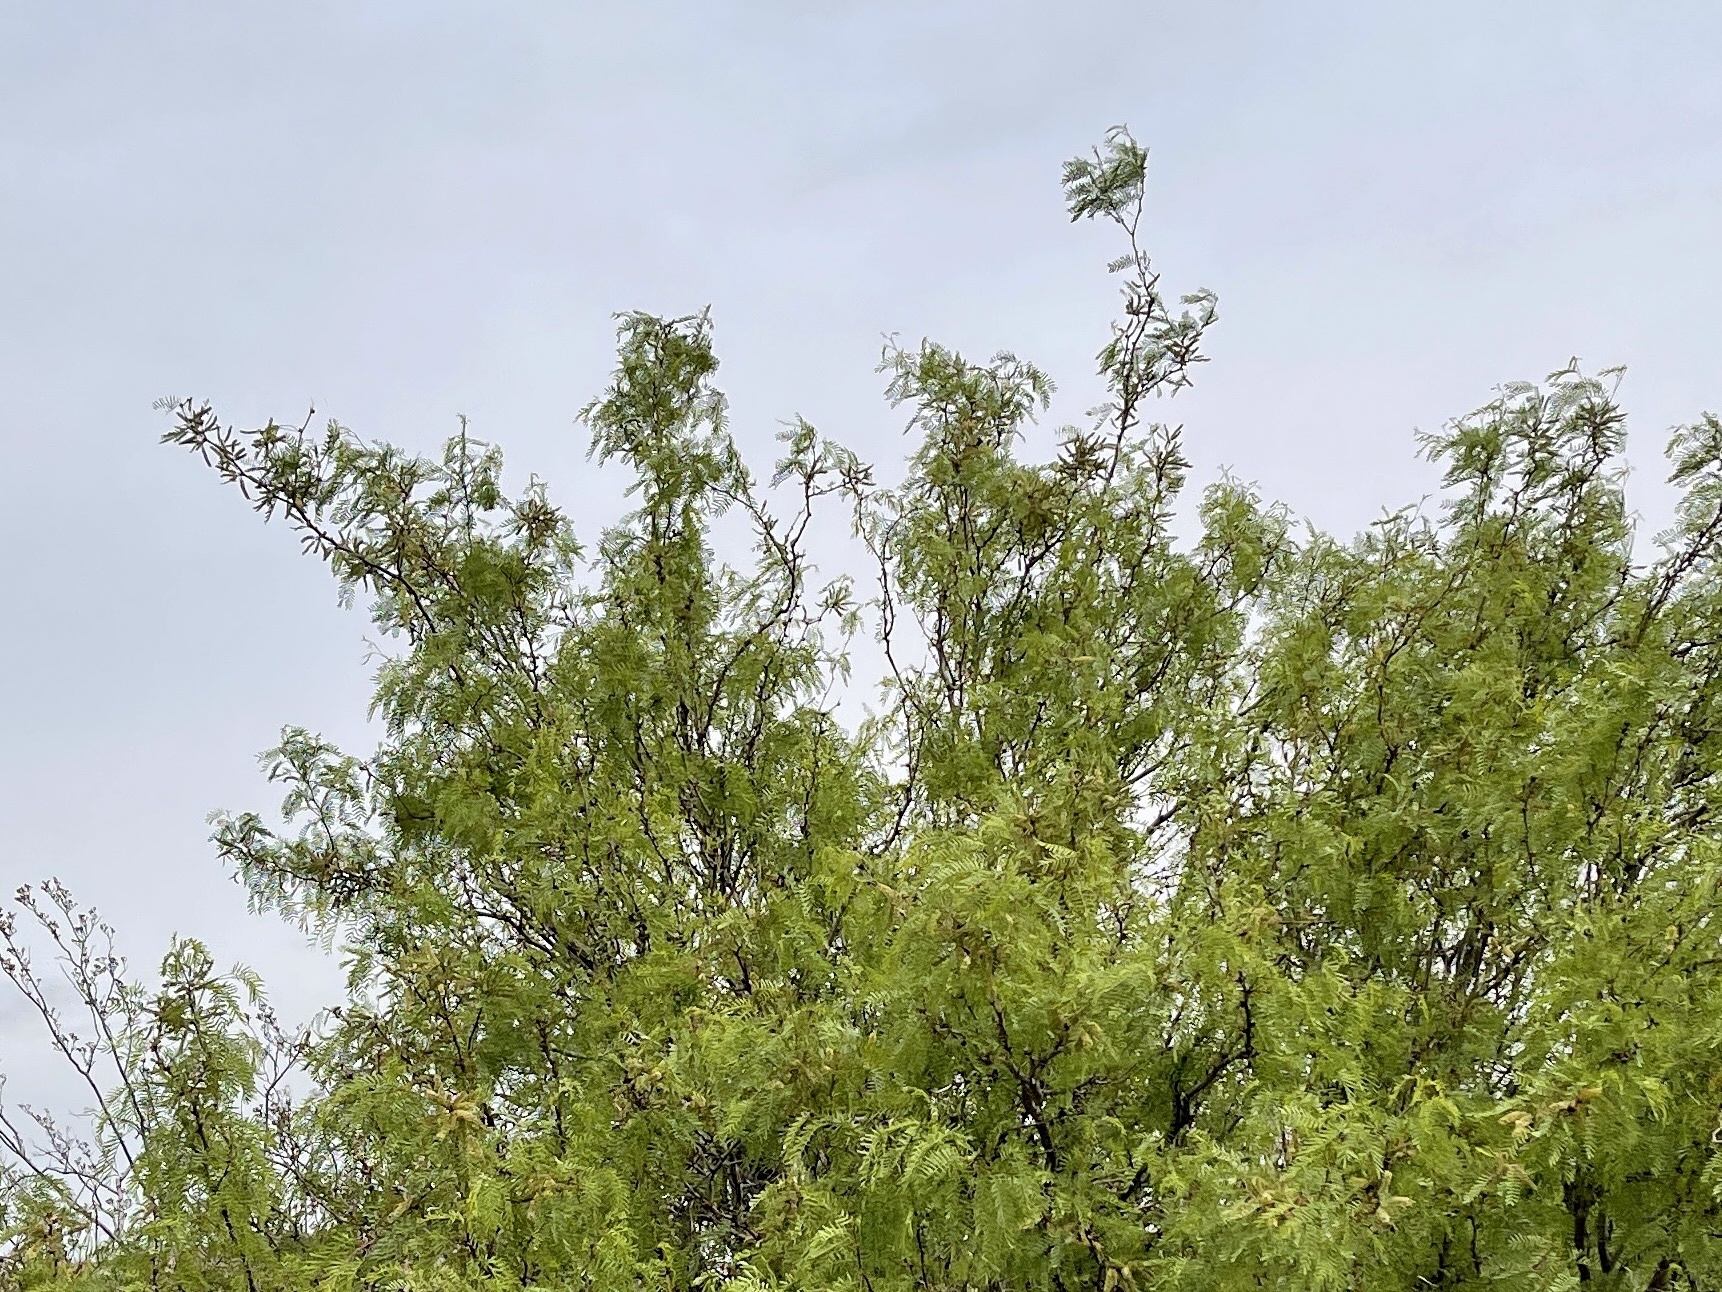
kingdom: Plantae
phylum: Tracheophyta
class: Magnoliopsida
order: Fabales
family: Fabaceae
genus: Prosopis
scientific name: Prosopis glandulosa
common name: Honey mesquite
